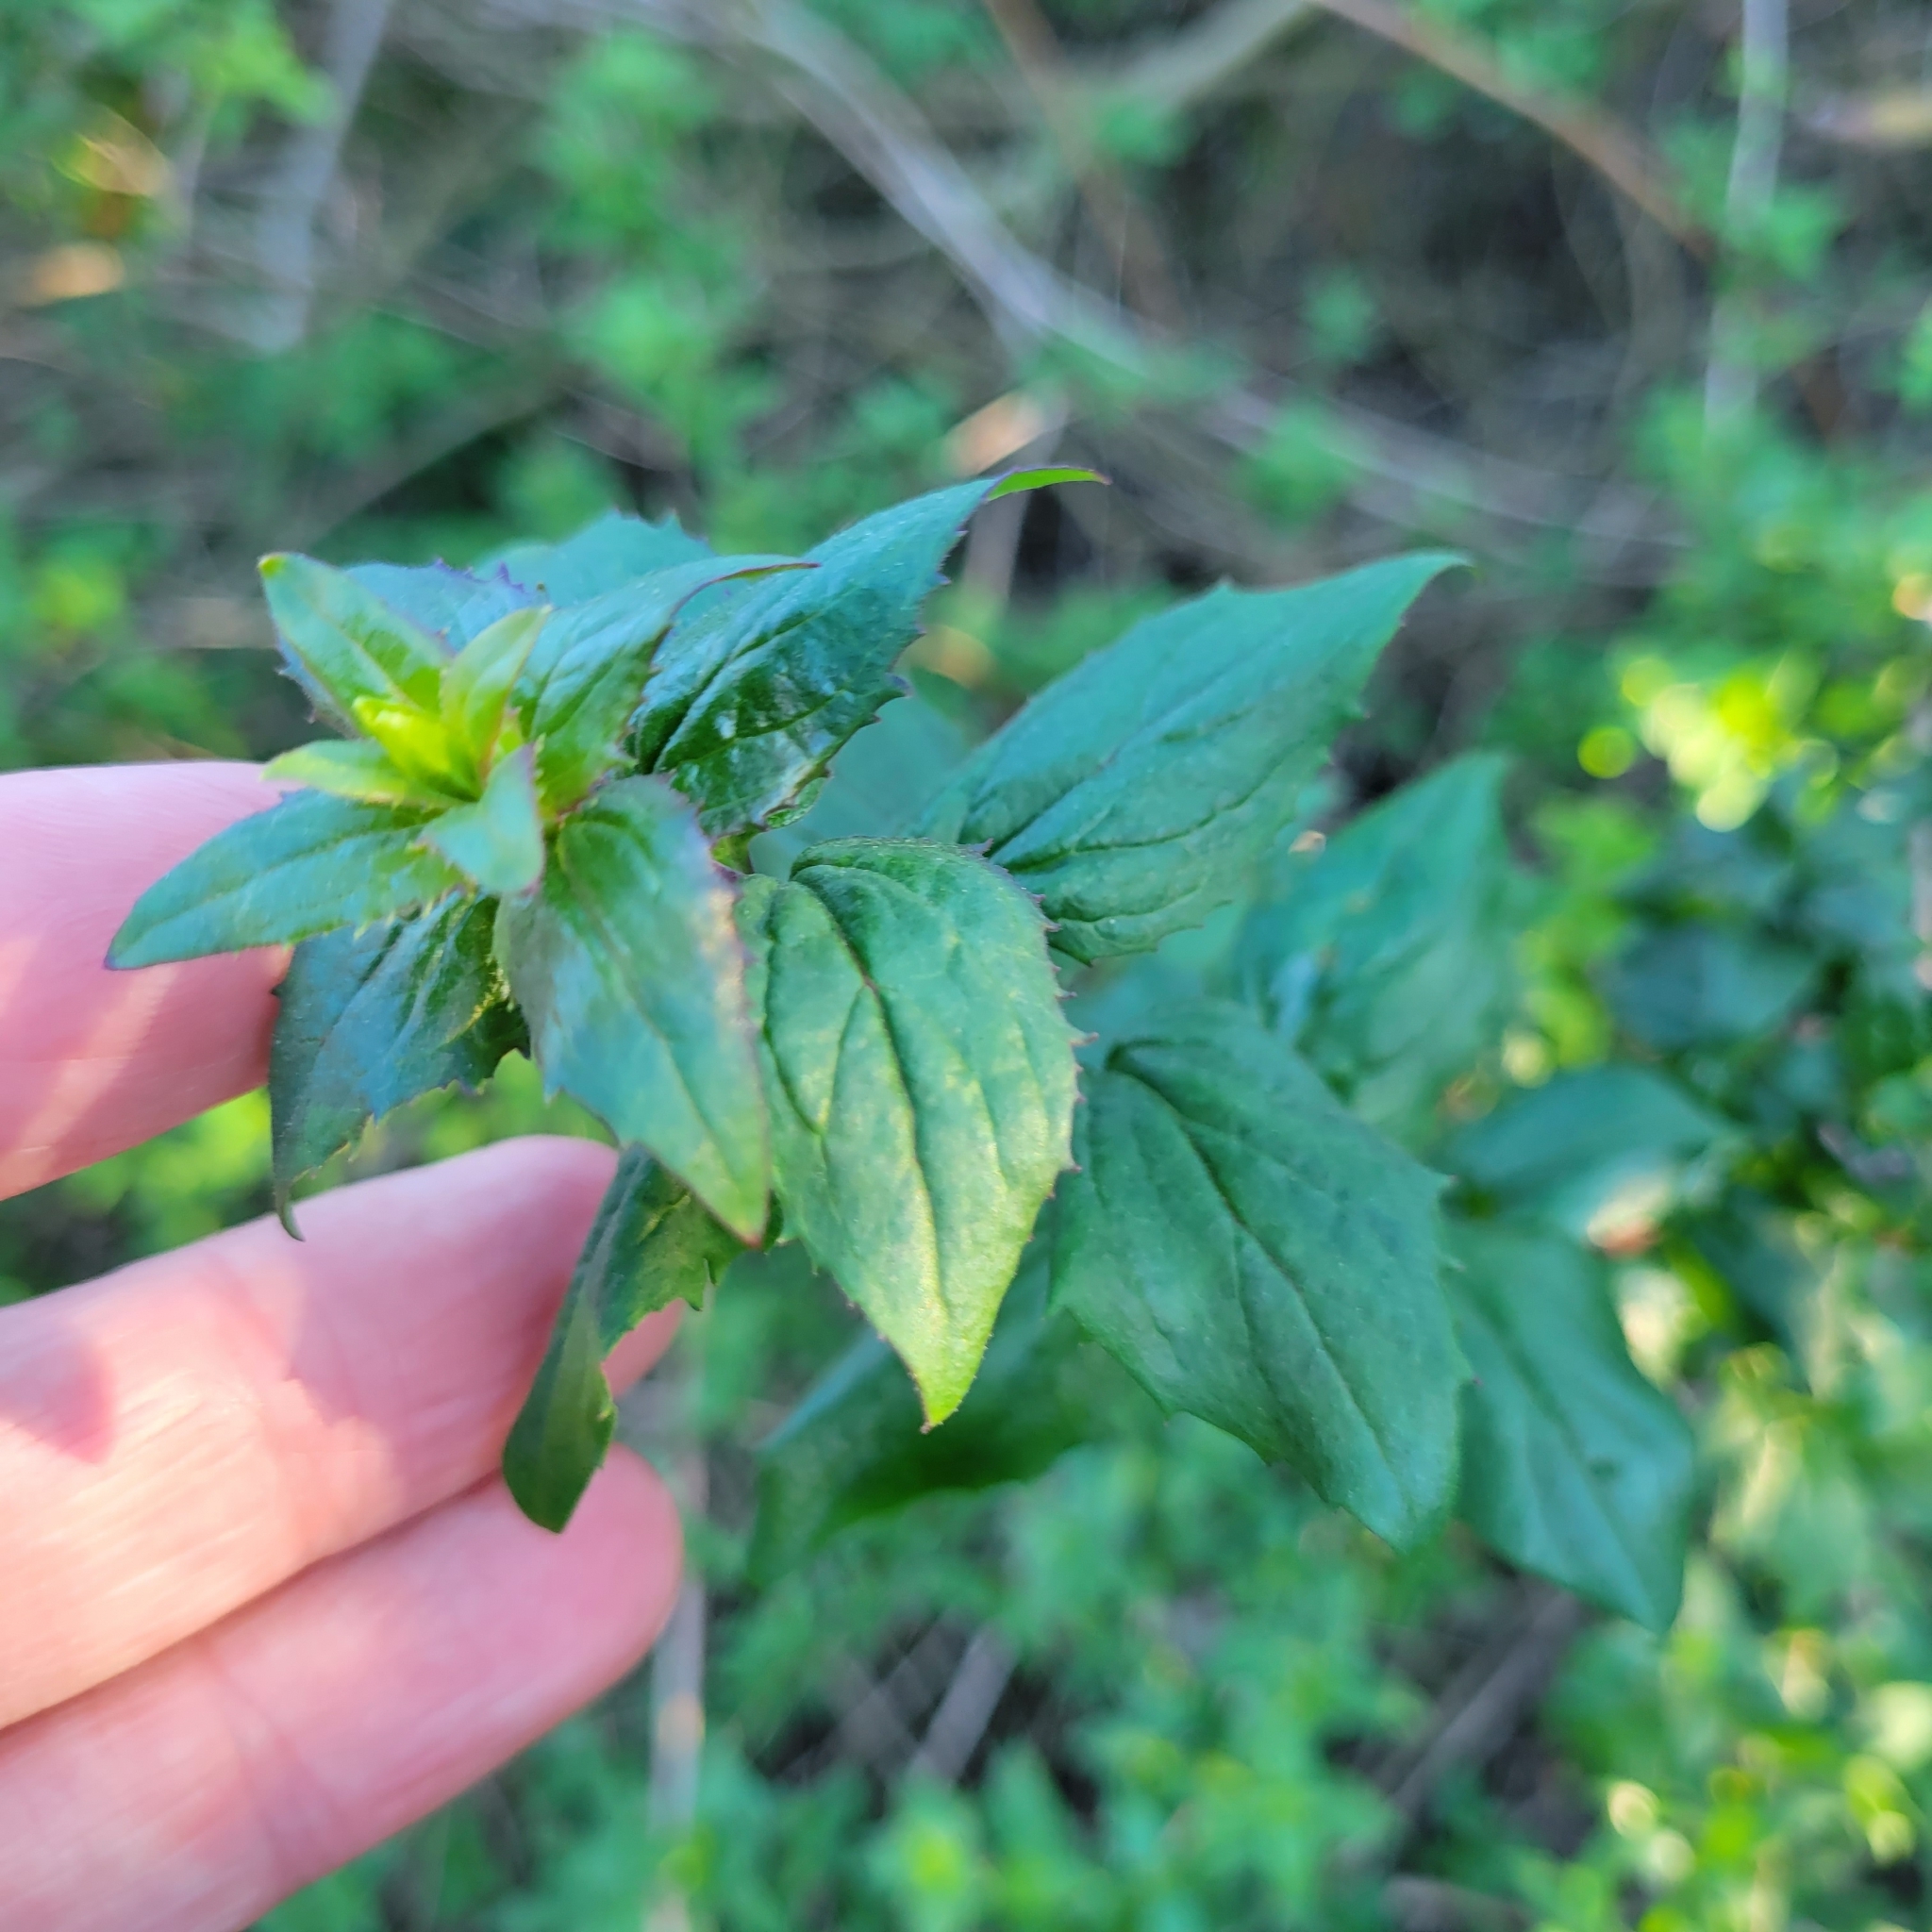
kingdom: Plantae
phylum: Tracheophyta
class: Magnoliopsida
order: Lamiales
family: Plantaginaceae
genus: Keckiella
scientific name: Keckiella cordifolia
